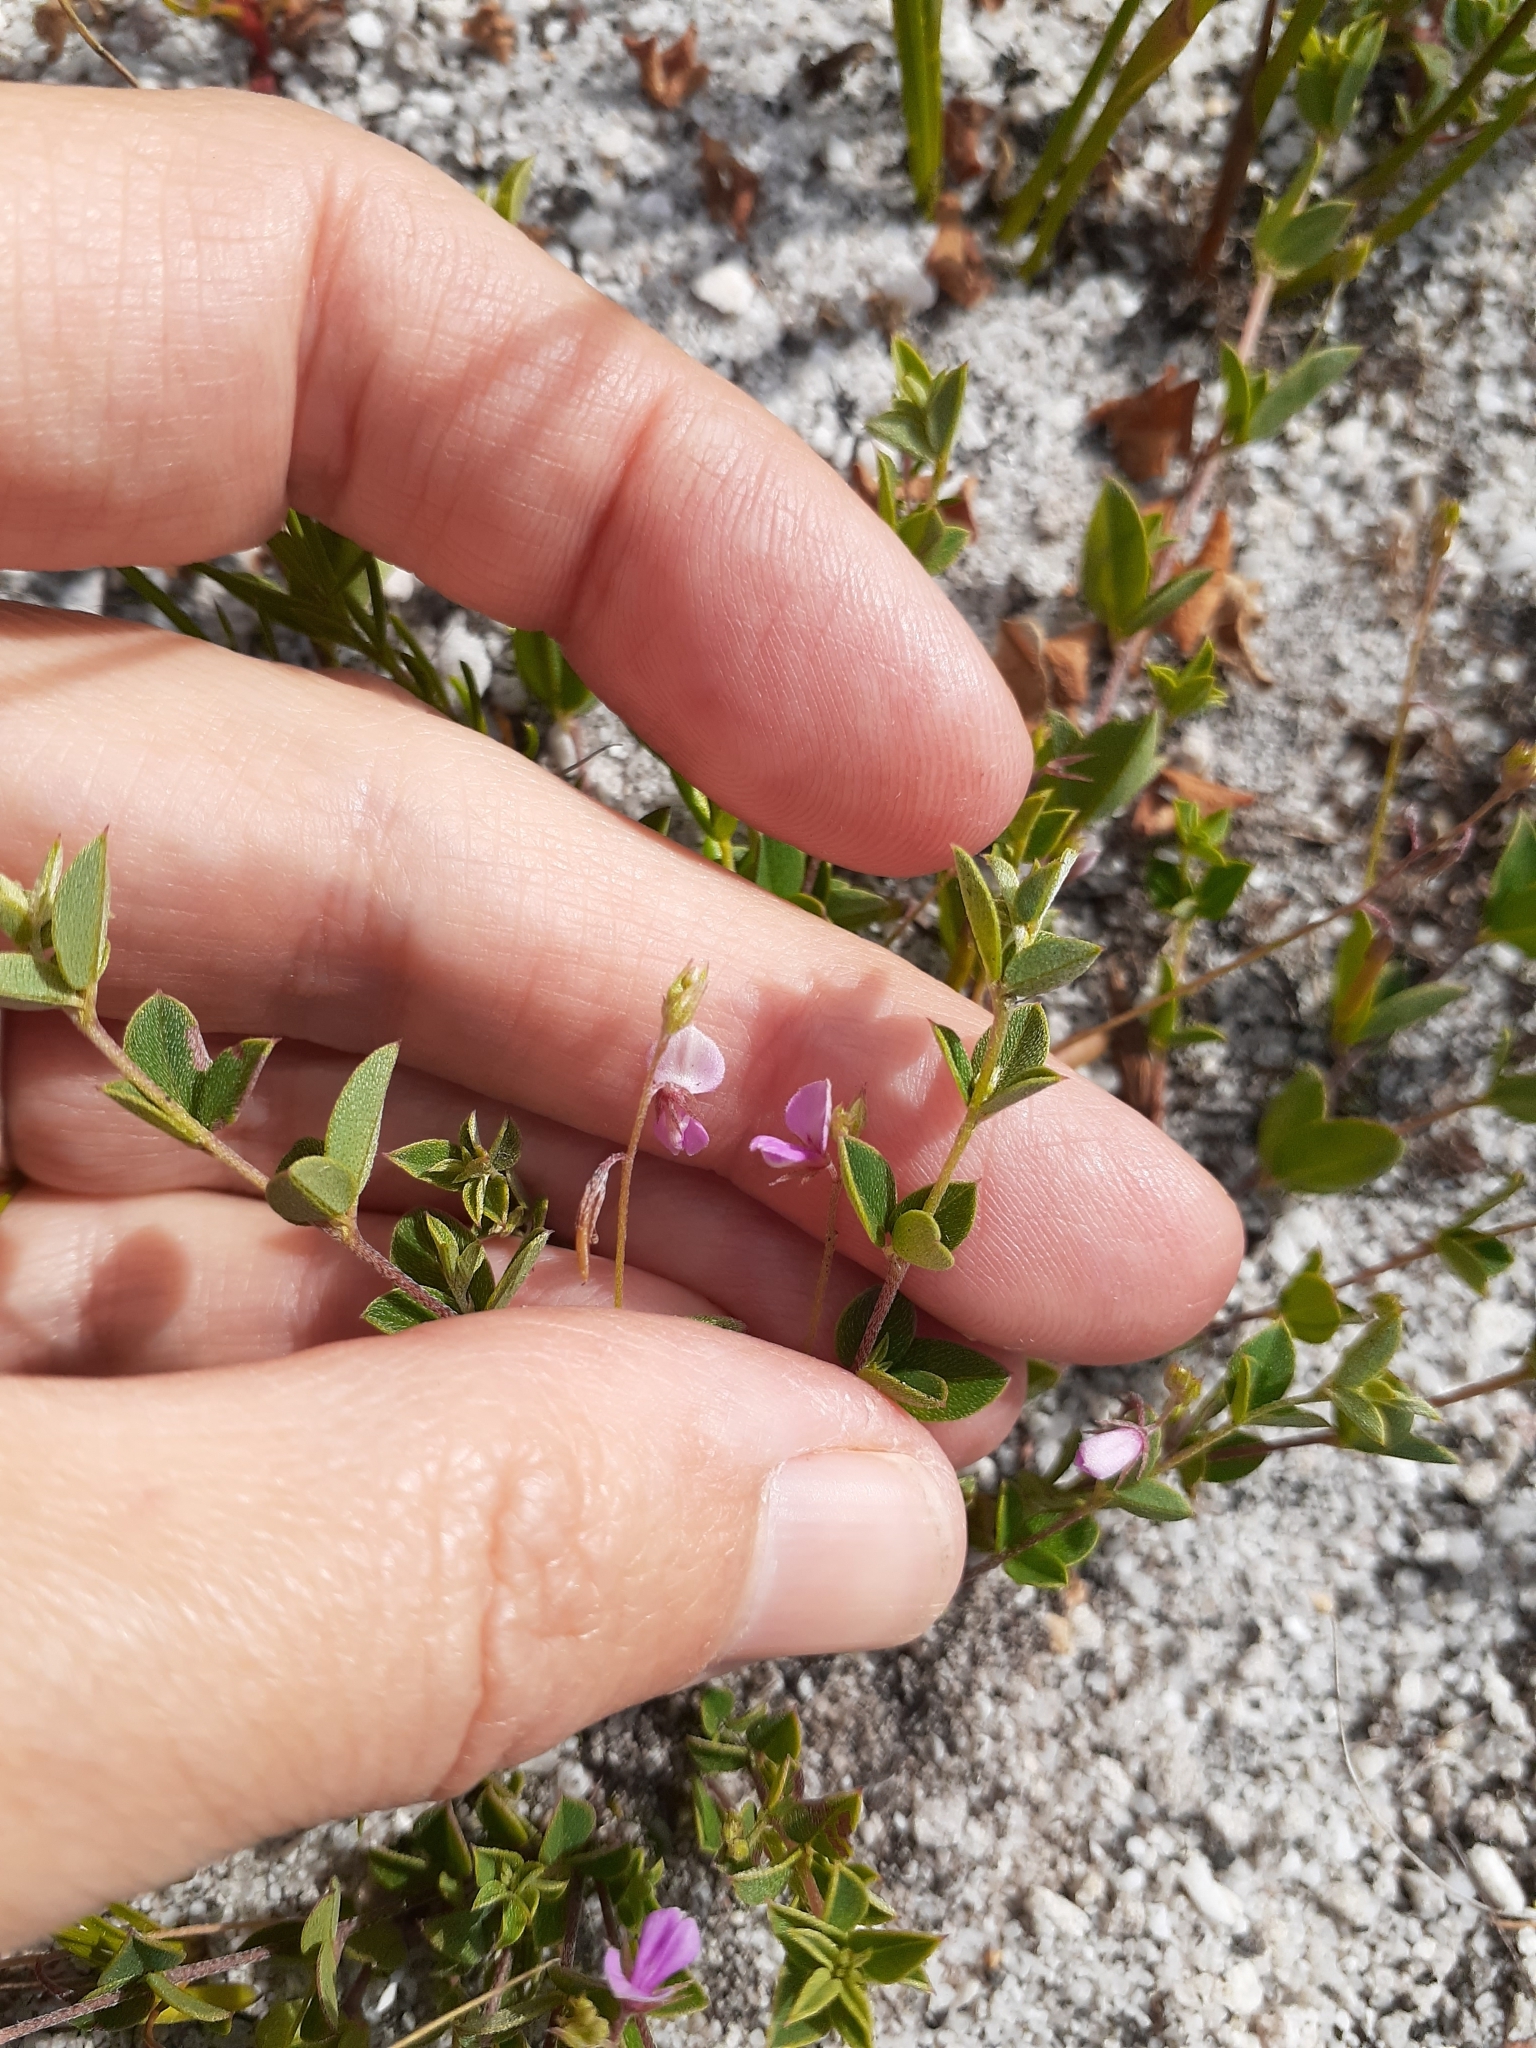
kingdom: Plantae
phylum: Tracheophyta
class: Magnoliopsida
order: Fabales
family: Fabaceae
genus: Indigofera
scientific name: Indigofera sarmentosa
